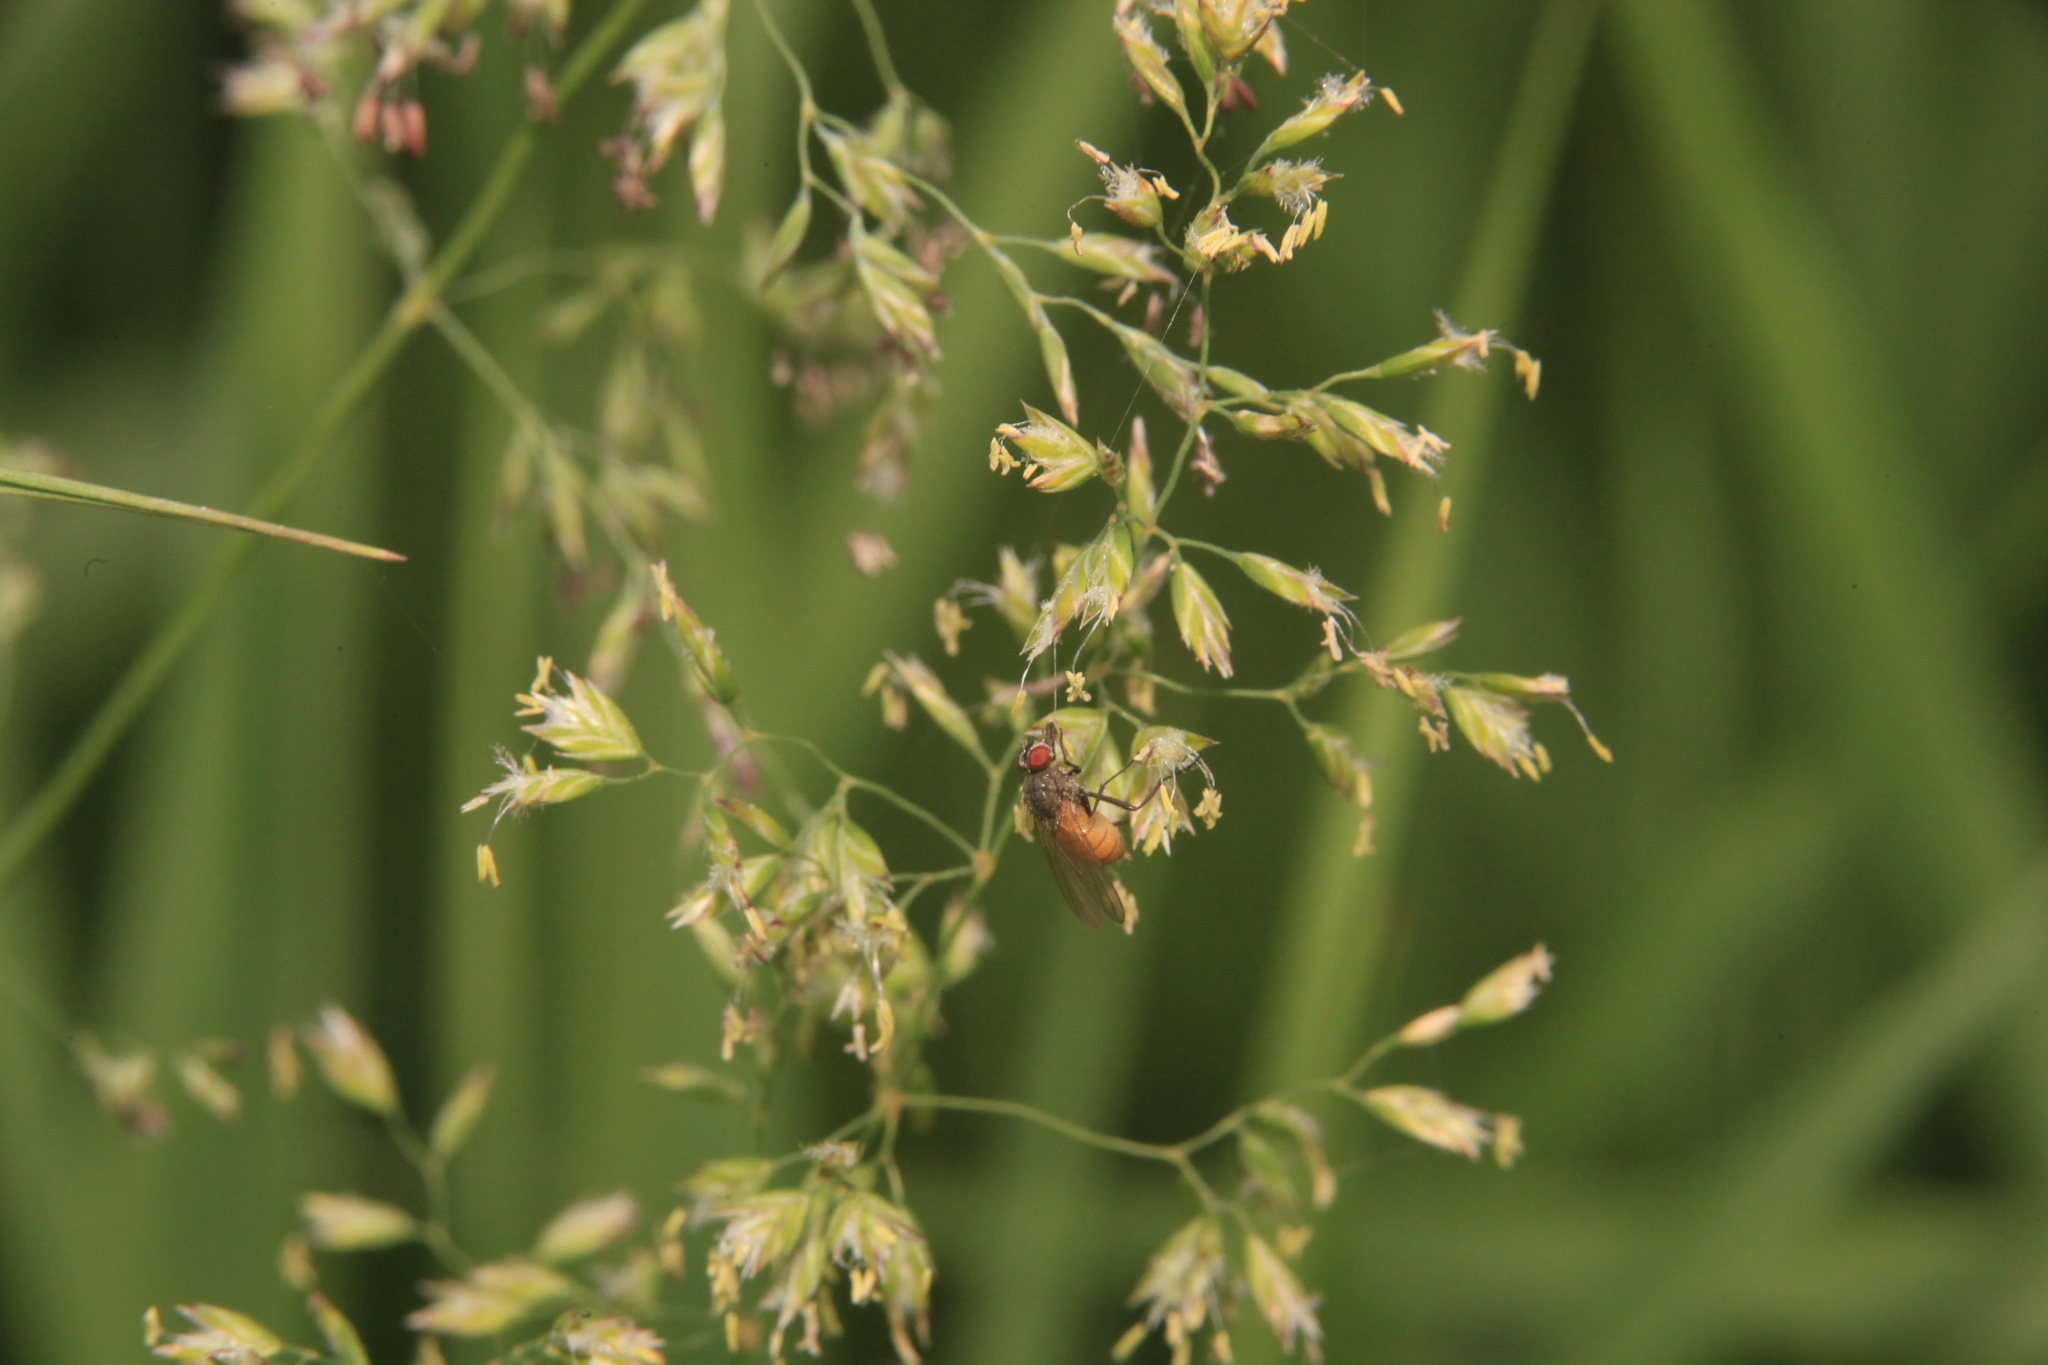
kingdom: Animalia
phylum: Arthropoda
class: Insecta
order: Diptera
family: Muscidae
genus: Thricops
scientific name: Thricops semicinereus
